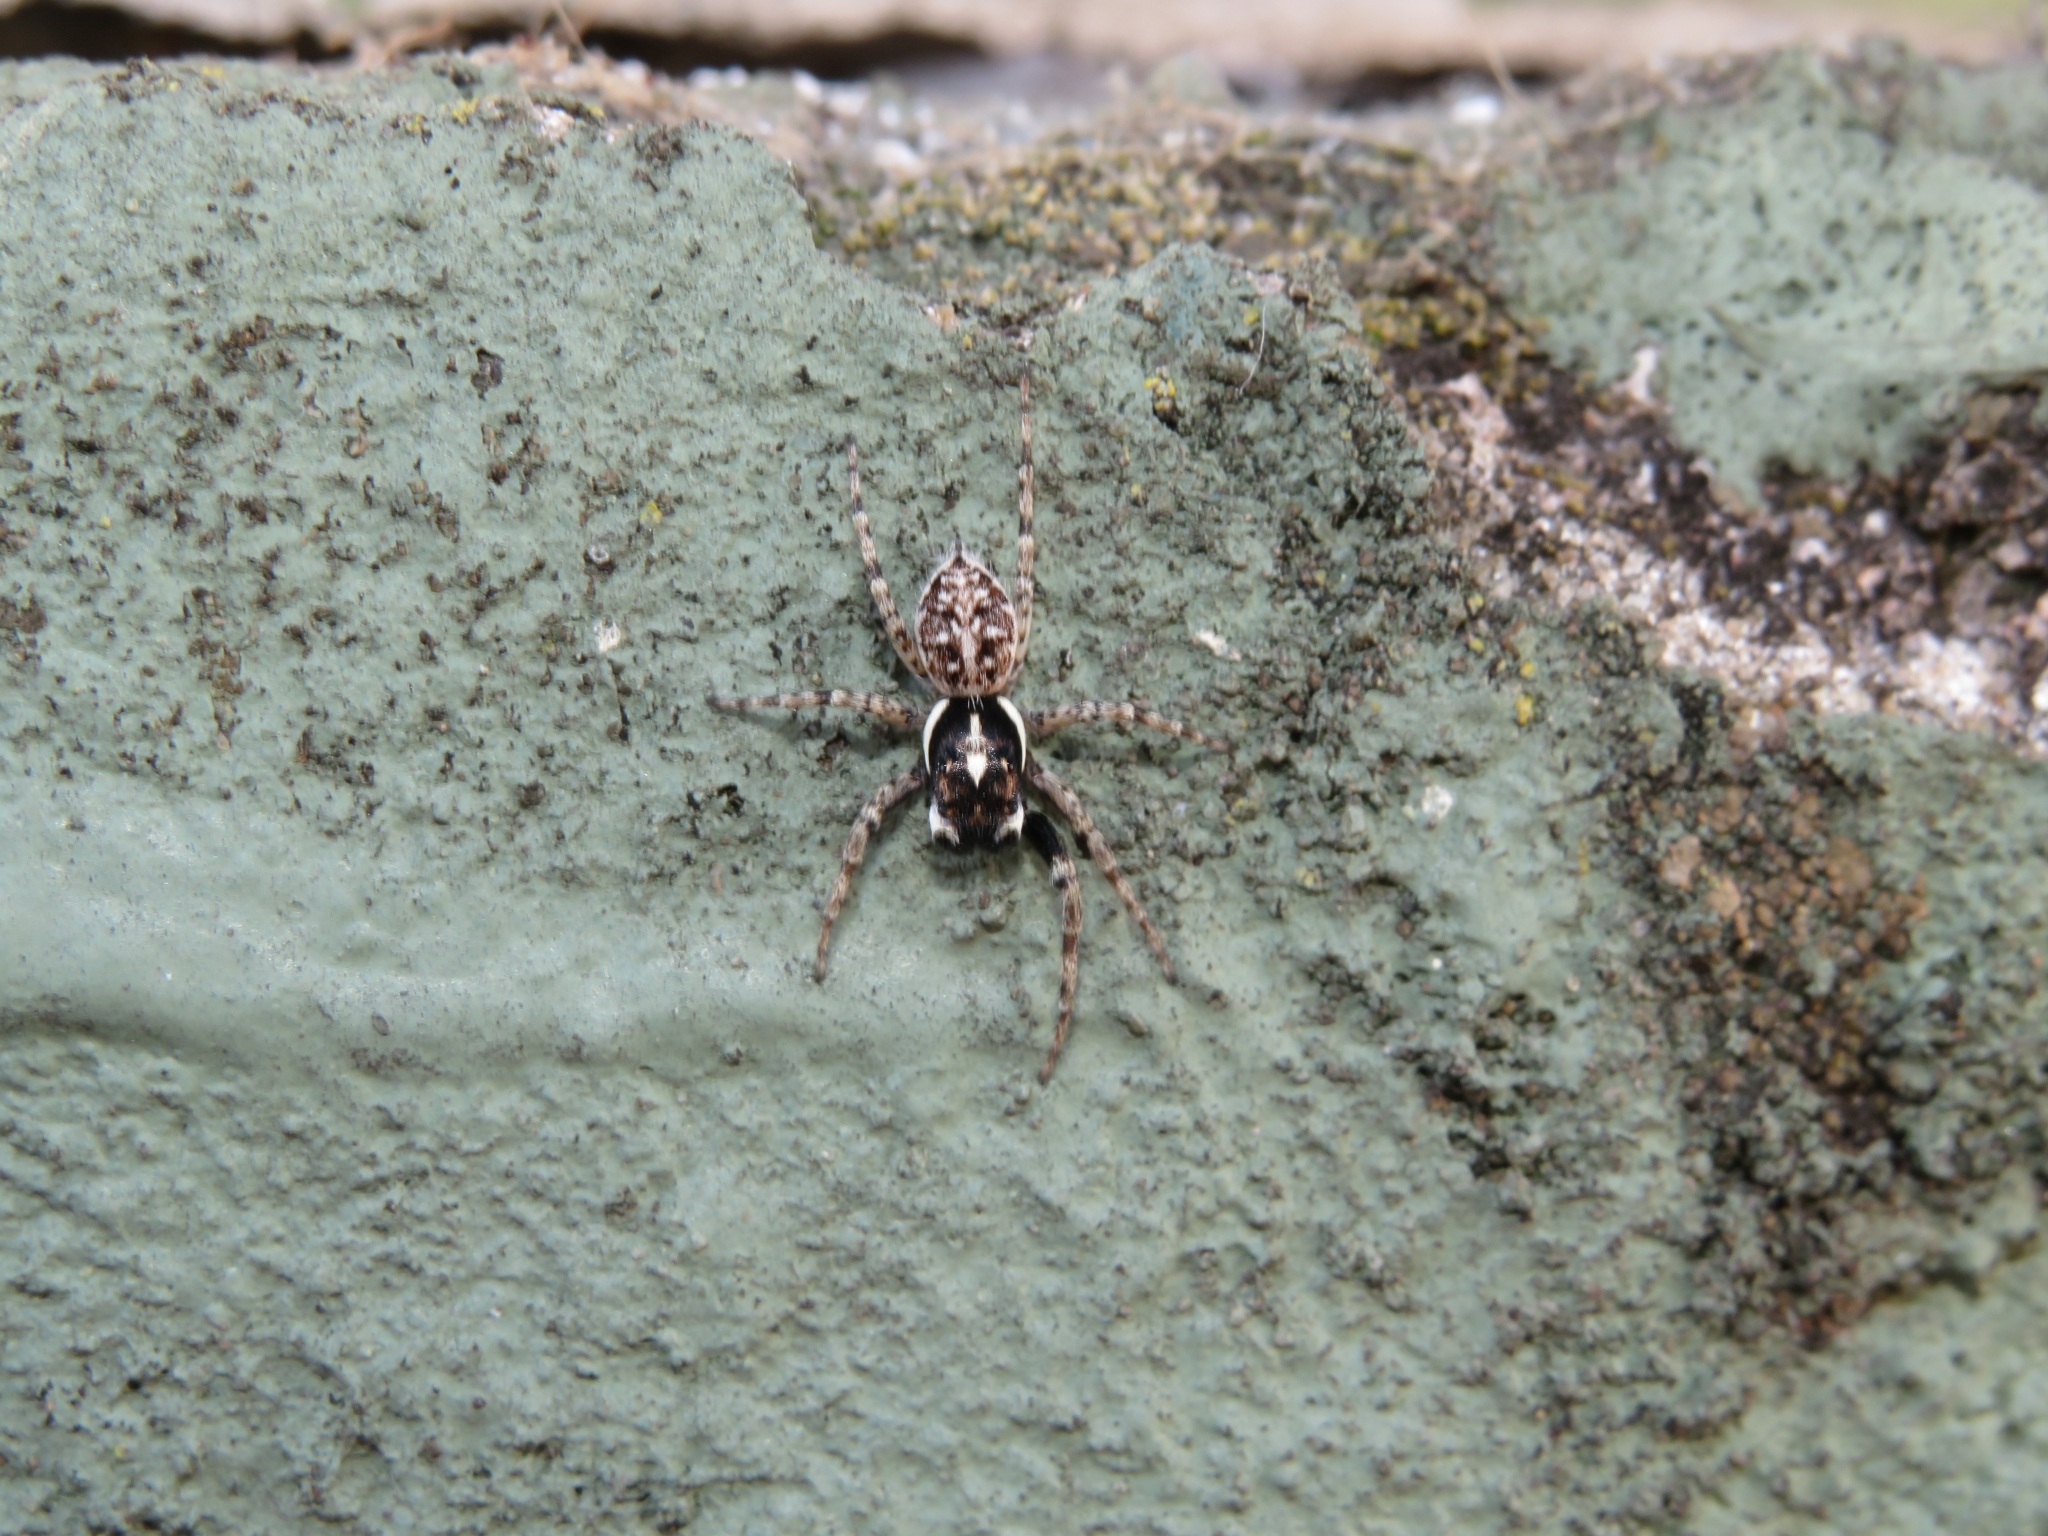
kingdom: Animalia
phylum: Arthropoda
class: Arachnida
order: Araneae
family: Salticidae
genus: Menemerus
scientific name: Menemerus semilimbatus
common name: Jumping spider
